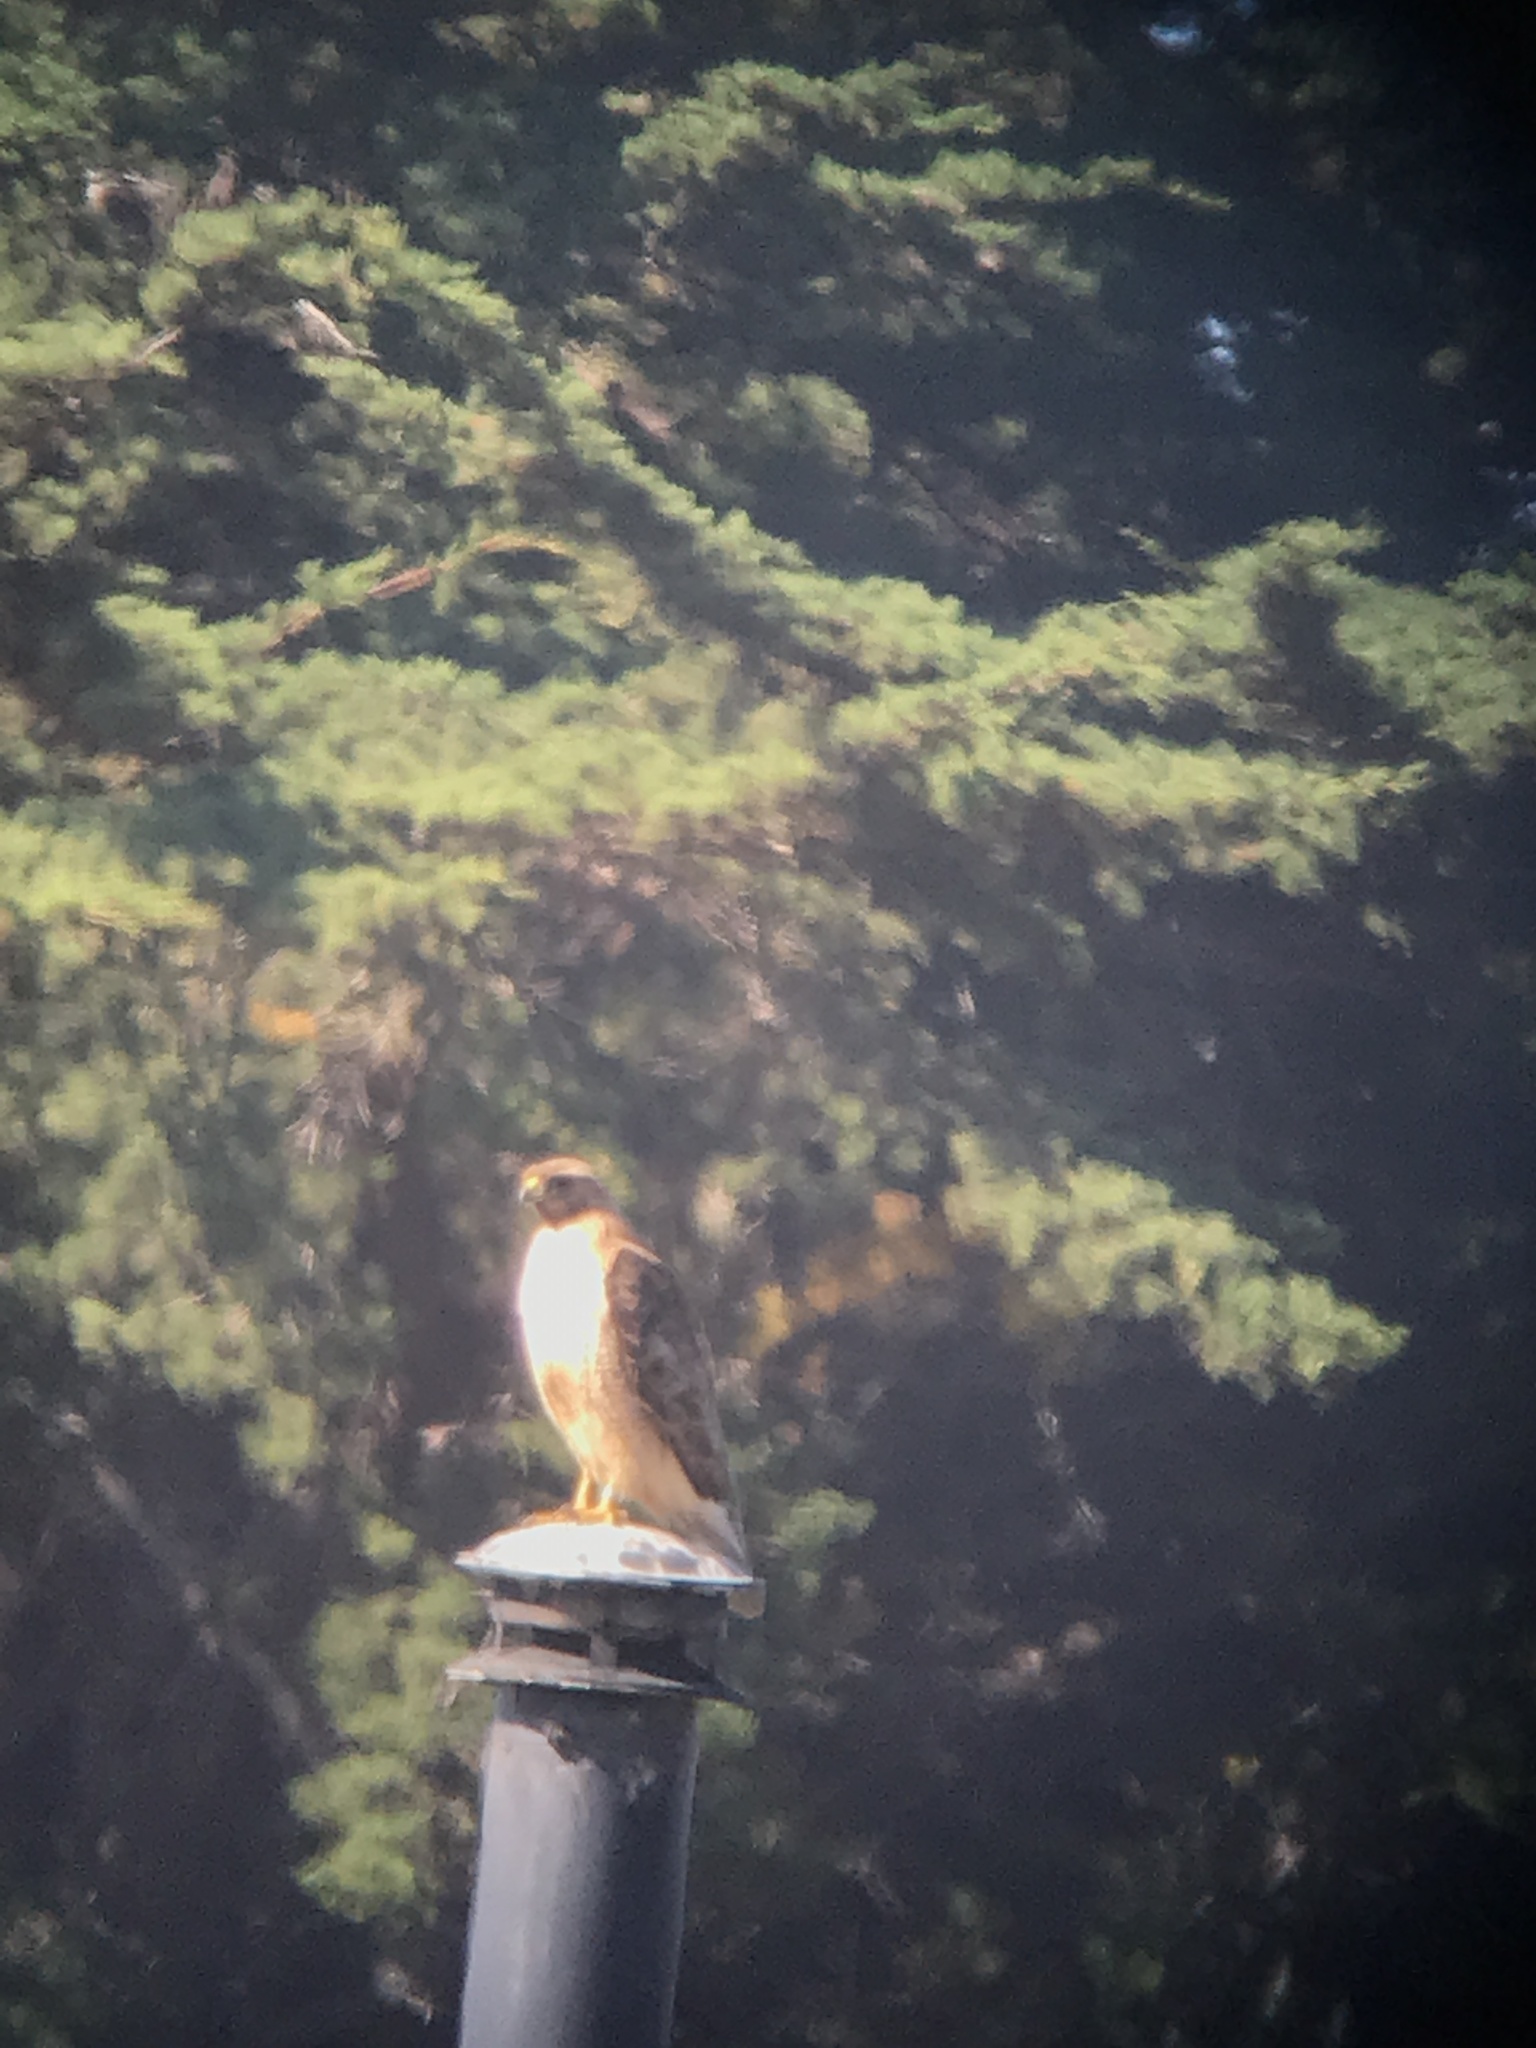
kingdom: Animalia
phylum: Chordata
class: Aves
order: Accipitriformes
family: Accipitridae
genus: Buteo
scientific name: Buteo jamaicensis
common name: Red-tailed hawk
